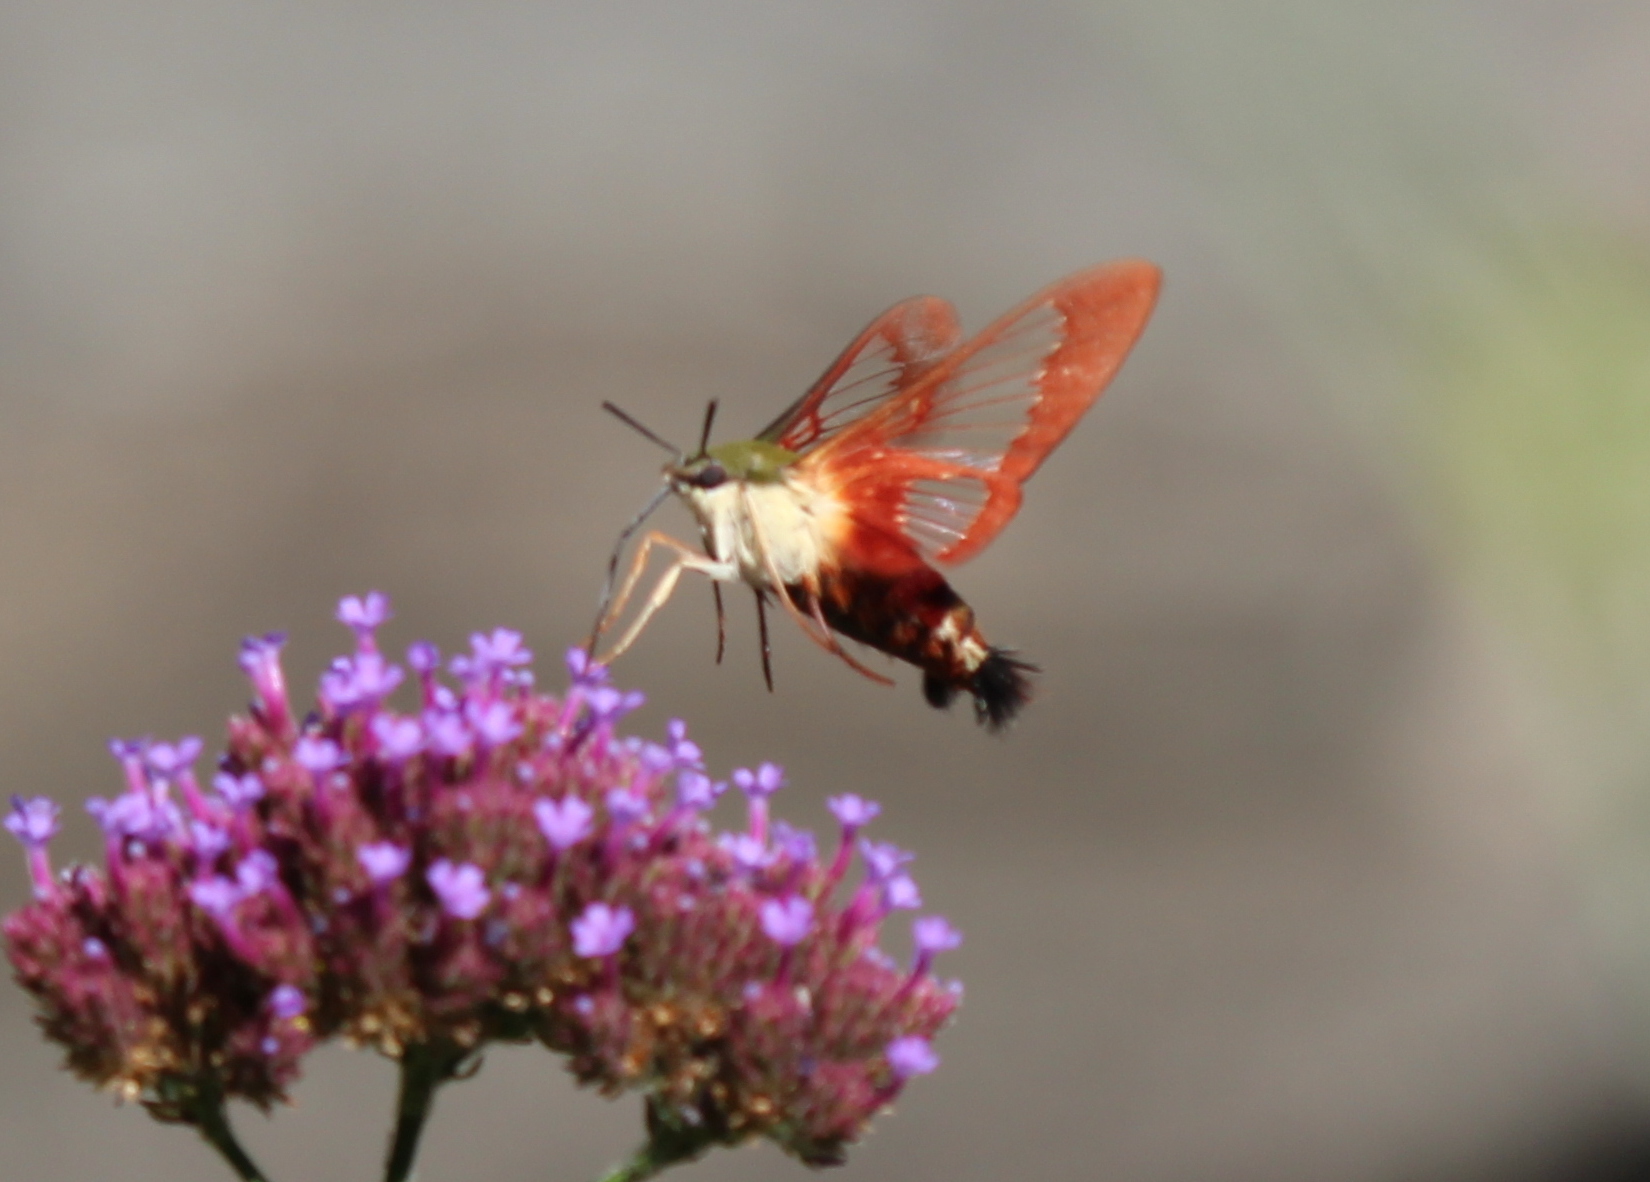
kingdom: Animalia
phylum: Arthropoda
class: Insecta
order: Lepidoptera
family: Sphingidae
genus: Hemaris
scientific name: Hemaris thysbe
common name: Common clear-wing
